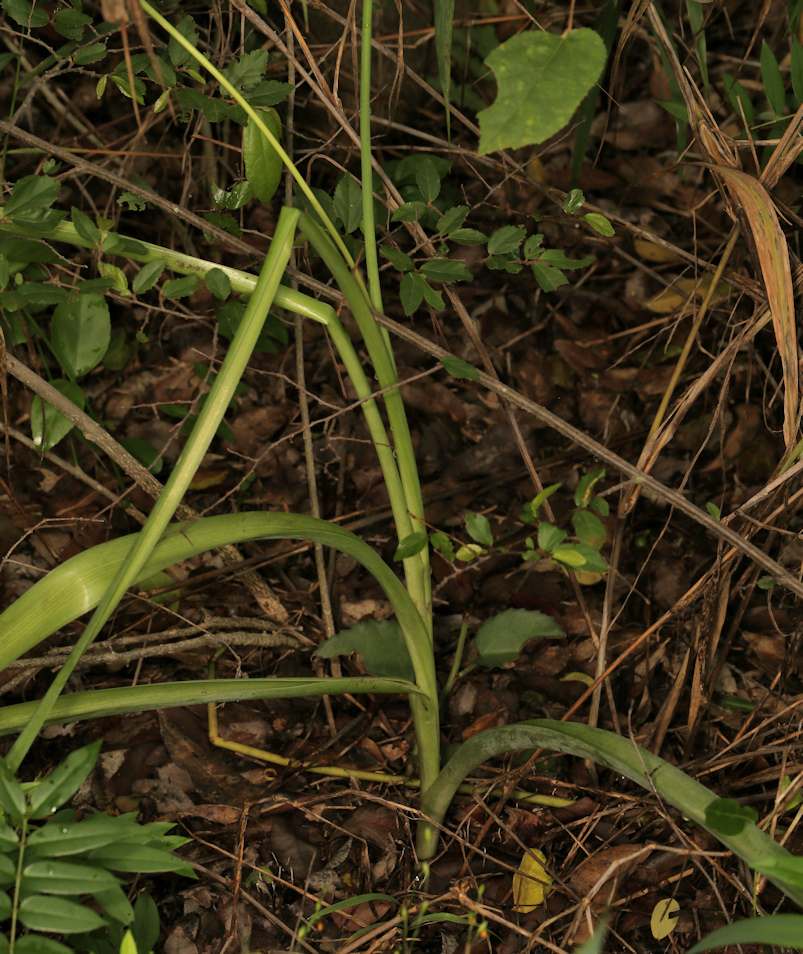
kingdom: Plantae
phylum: Tracheophyta
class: Liliopsida
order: Asparagales
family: Asparagaceae
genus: Albuca
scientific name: Albuca virens
